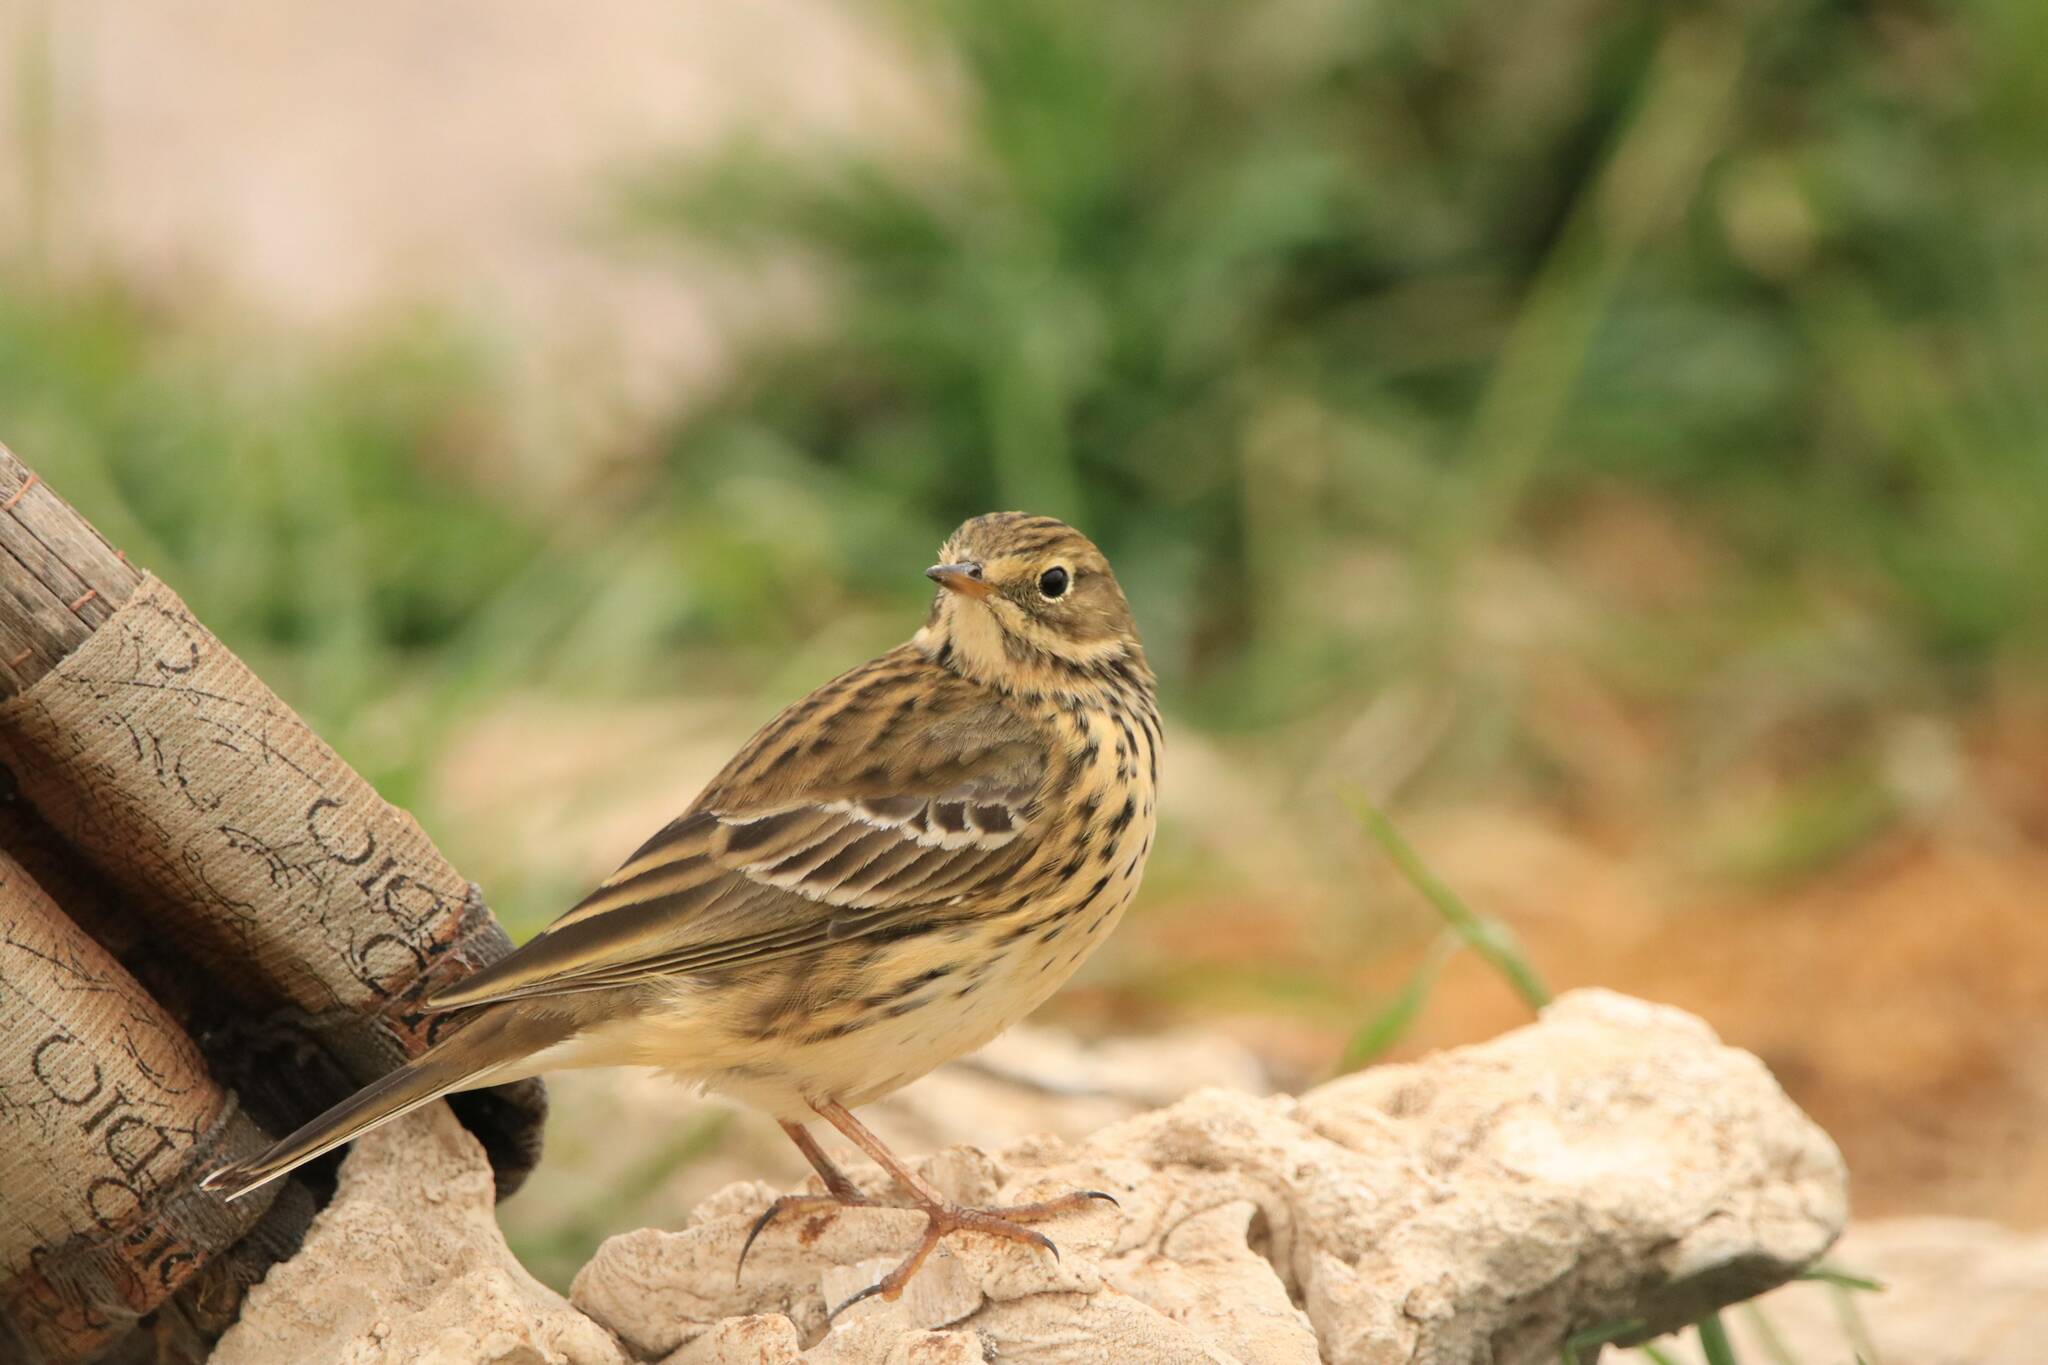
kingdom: Animalia
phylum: Chordata
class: Aves
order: Passeriformes
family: Motacillidae
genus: Anthus
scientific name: Anthus pratensis
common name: Meadow pipit
